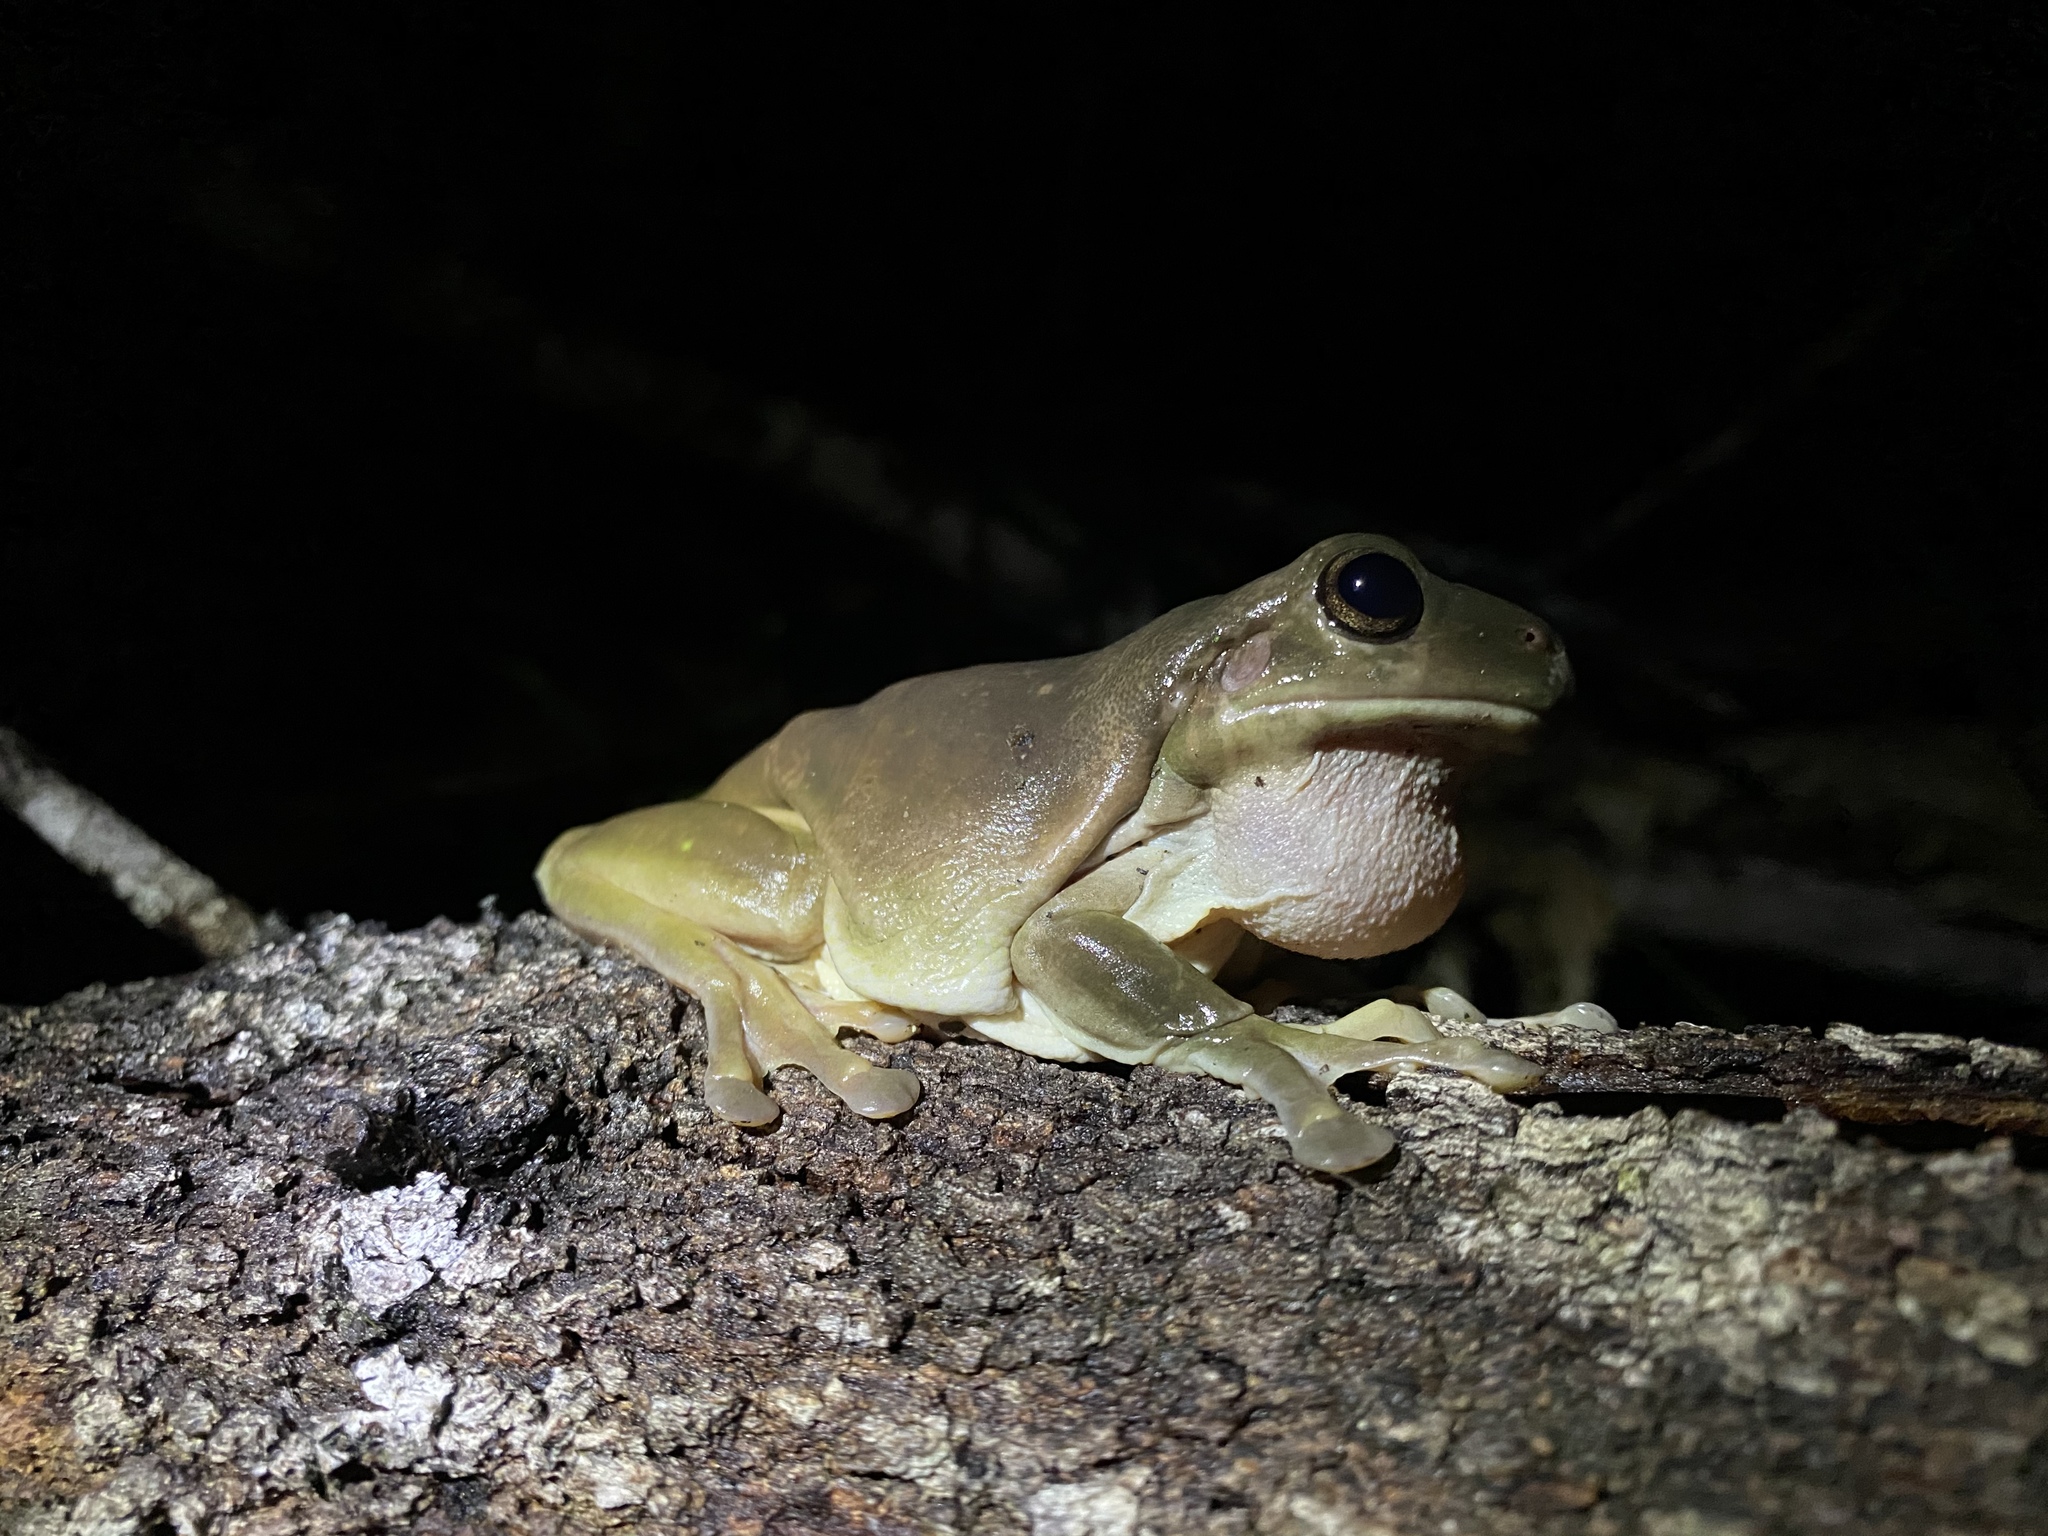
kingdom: Animalia
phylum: Chordata
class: Amphibia
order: Anura
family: Pelodryadidae
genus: Ranoidea
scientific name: Ranoidea caerulea
